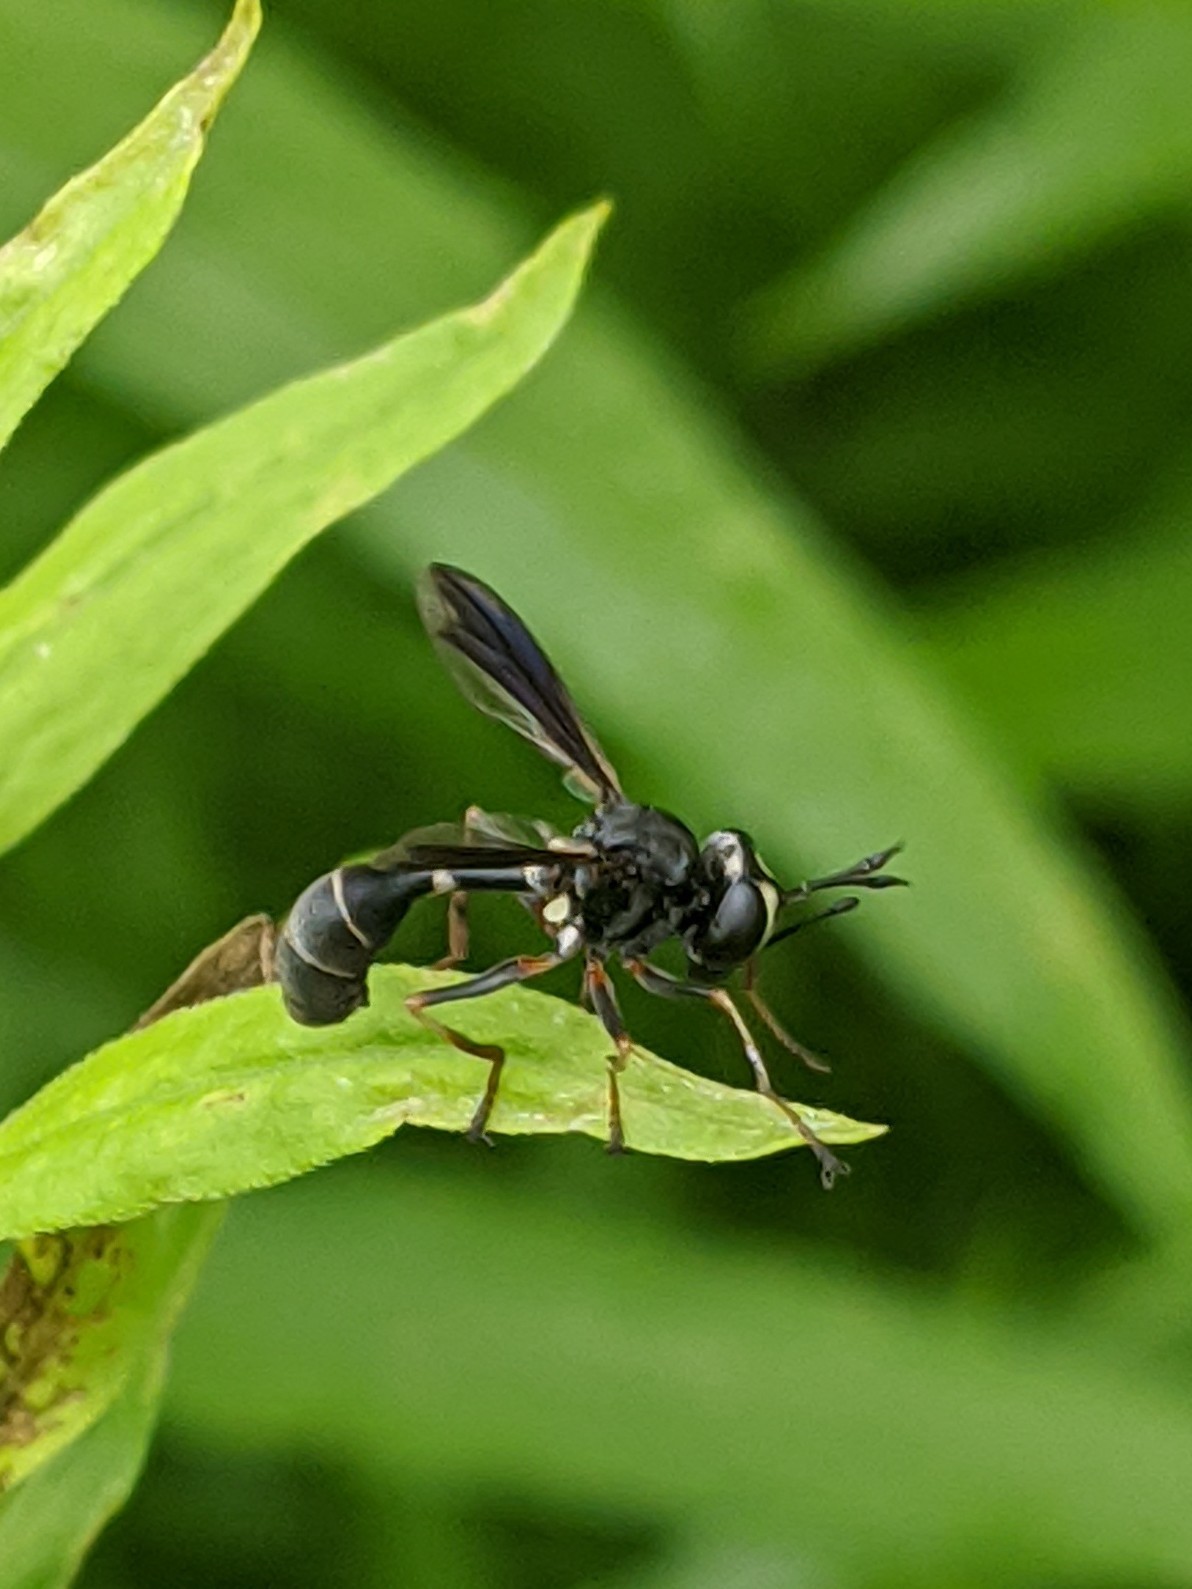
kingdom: Animalia
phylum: Arthropoda
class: Insecta
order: Diptera
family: Conopidae
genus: Physocephala
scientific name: Physocephala tibialis
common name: Common eastern physocephala
